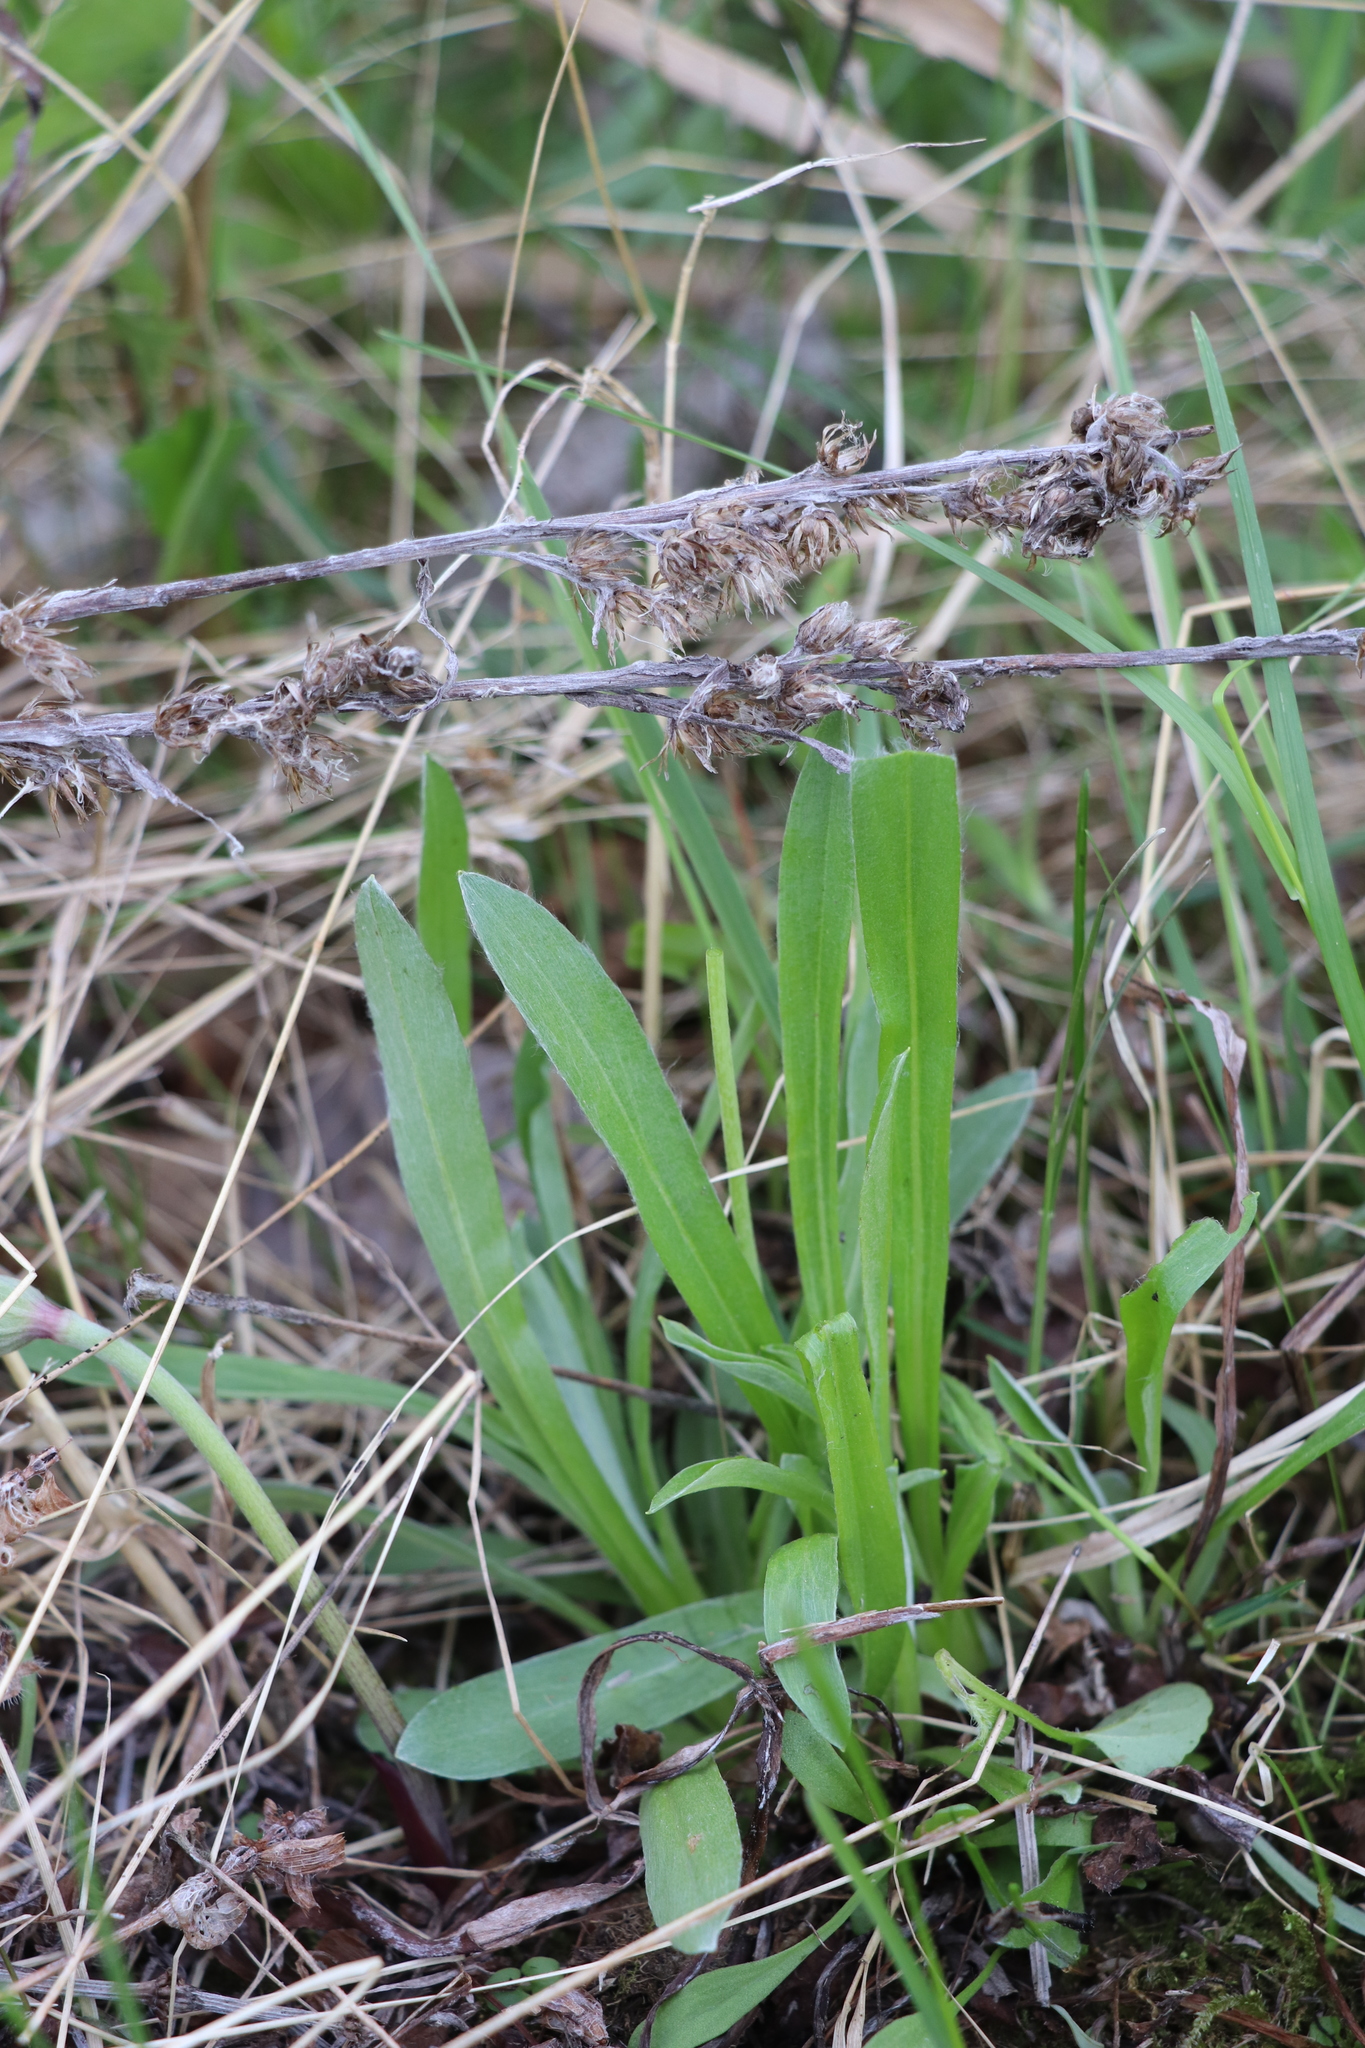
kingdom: Plantae
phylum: Tracheophyta
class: Magnoliopsida
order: Asterales
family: Asteraceae
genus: Omalotheca
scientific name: Omalotheca sylvatica
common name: Heath cudweed
